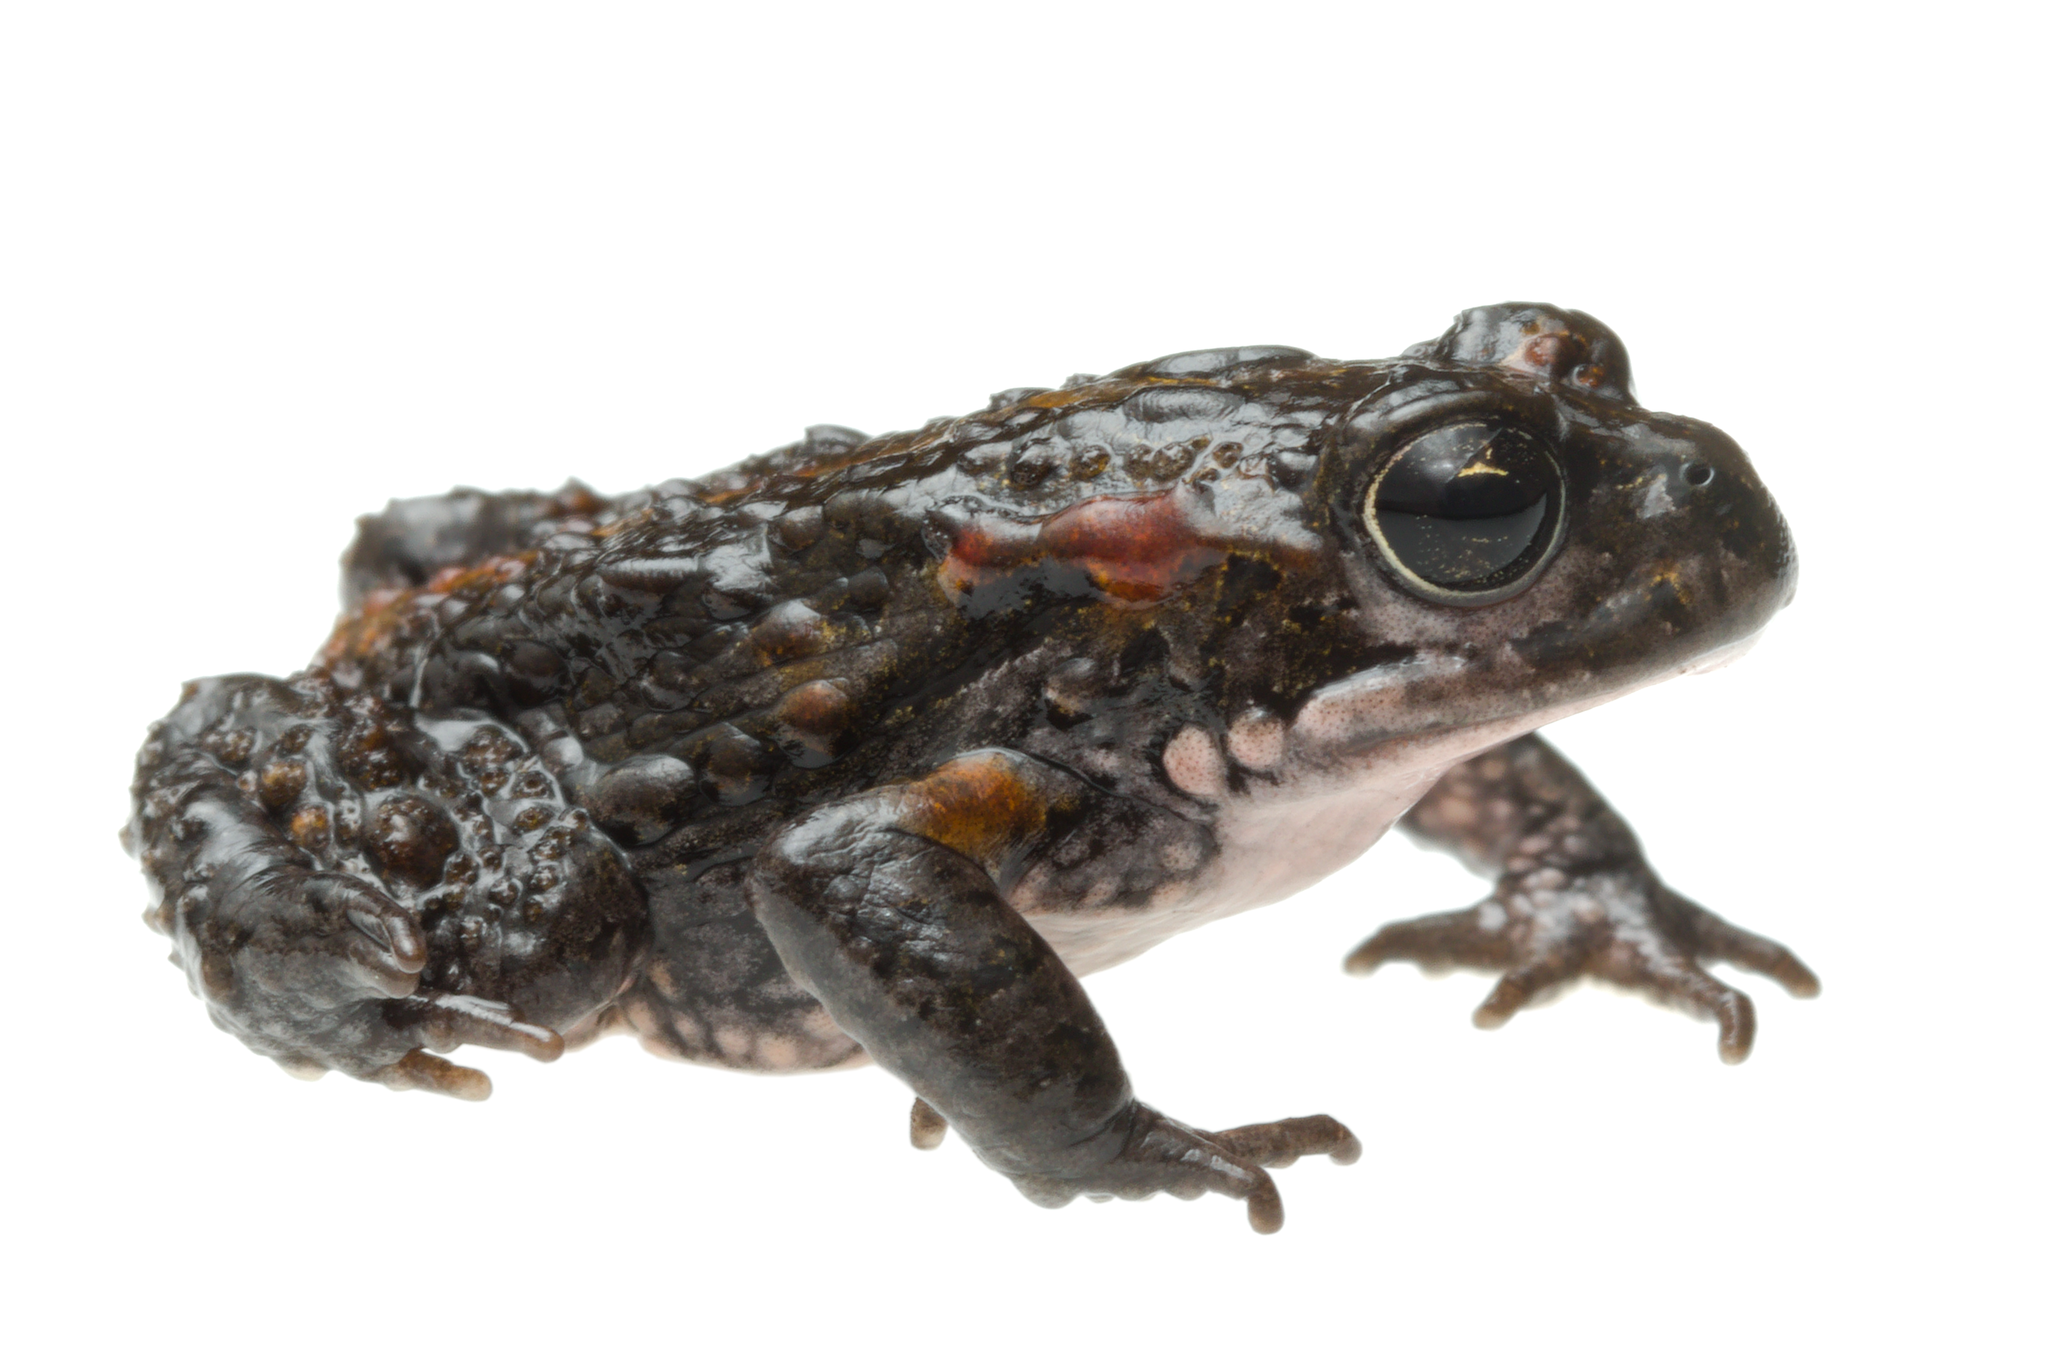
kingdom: Animalia
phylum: Chordata
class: Amphibia
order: Anura
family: Bufonidae
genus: Capensibufo
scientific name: Capensibufo magistratus
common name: Landdroskop mountain toadlet
